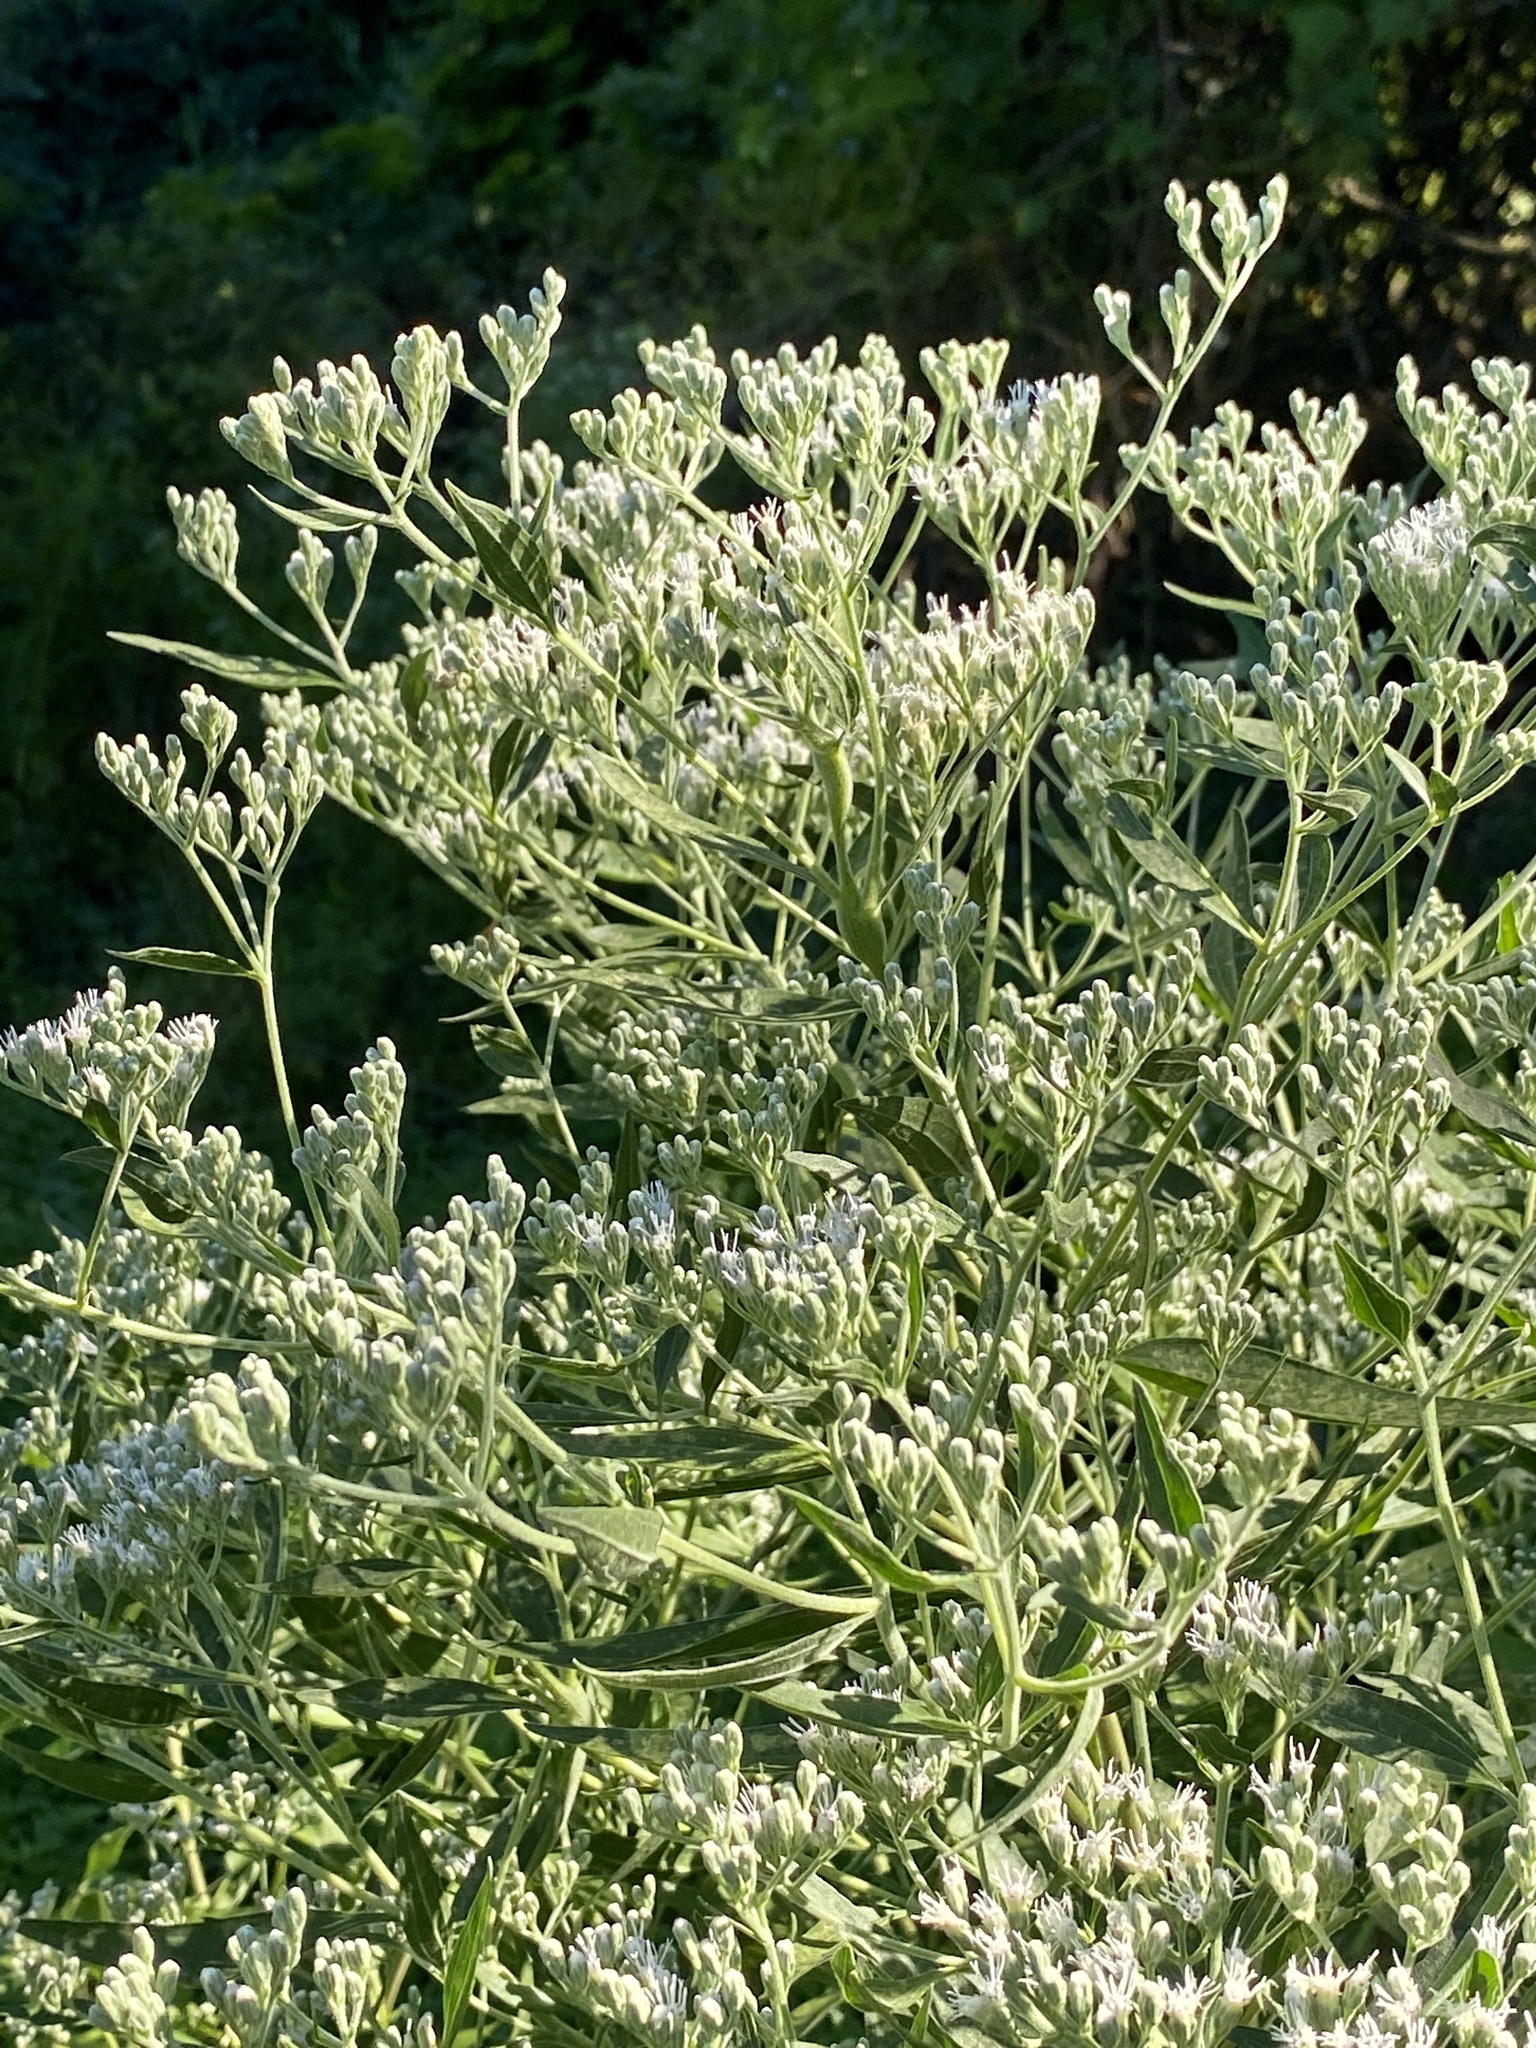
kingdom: Plantae
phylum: Tracheophyta
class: Magnoliopsida
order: Asterales
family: Asteraceae
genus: Eupatorium
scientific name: Eupatorium serotinum
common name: Late boneset
